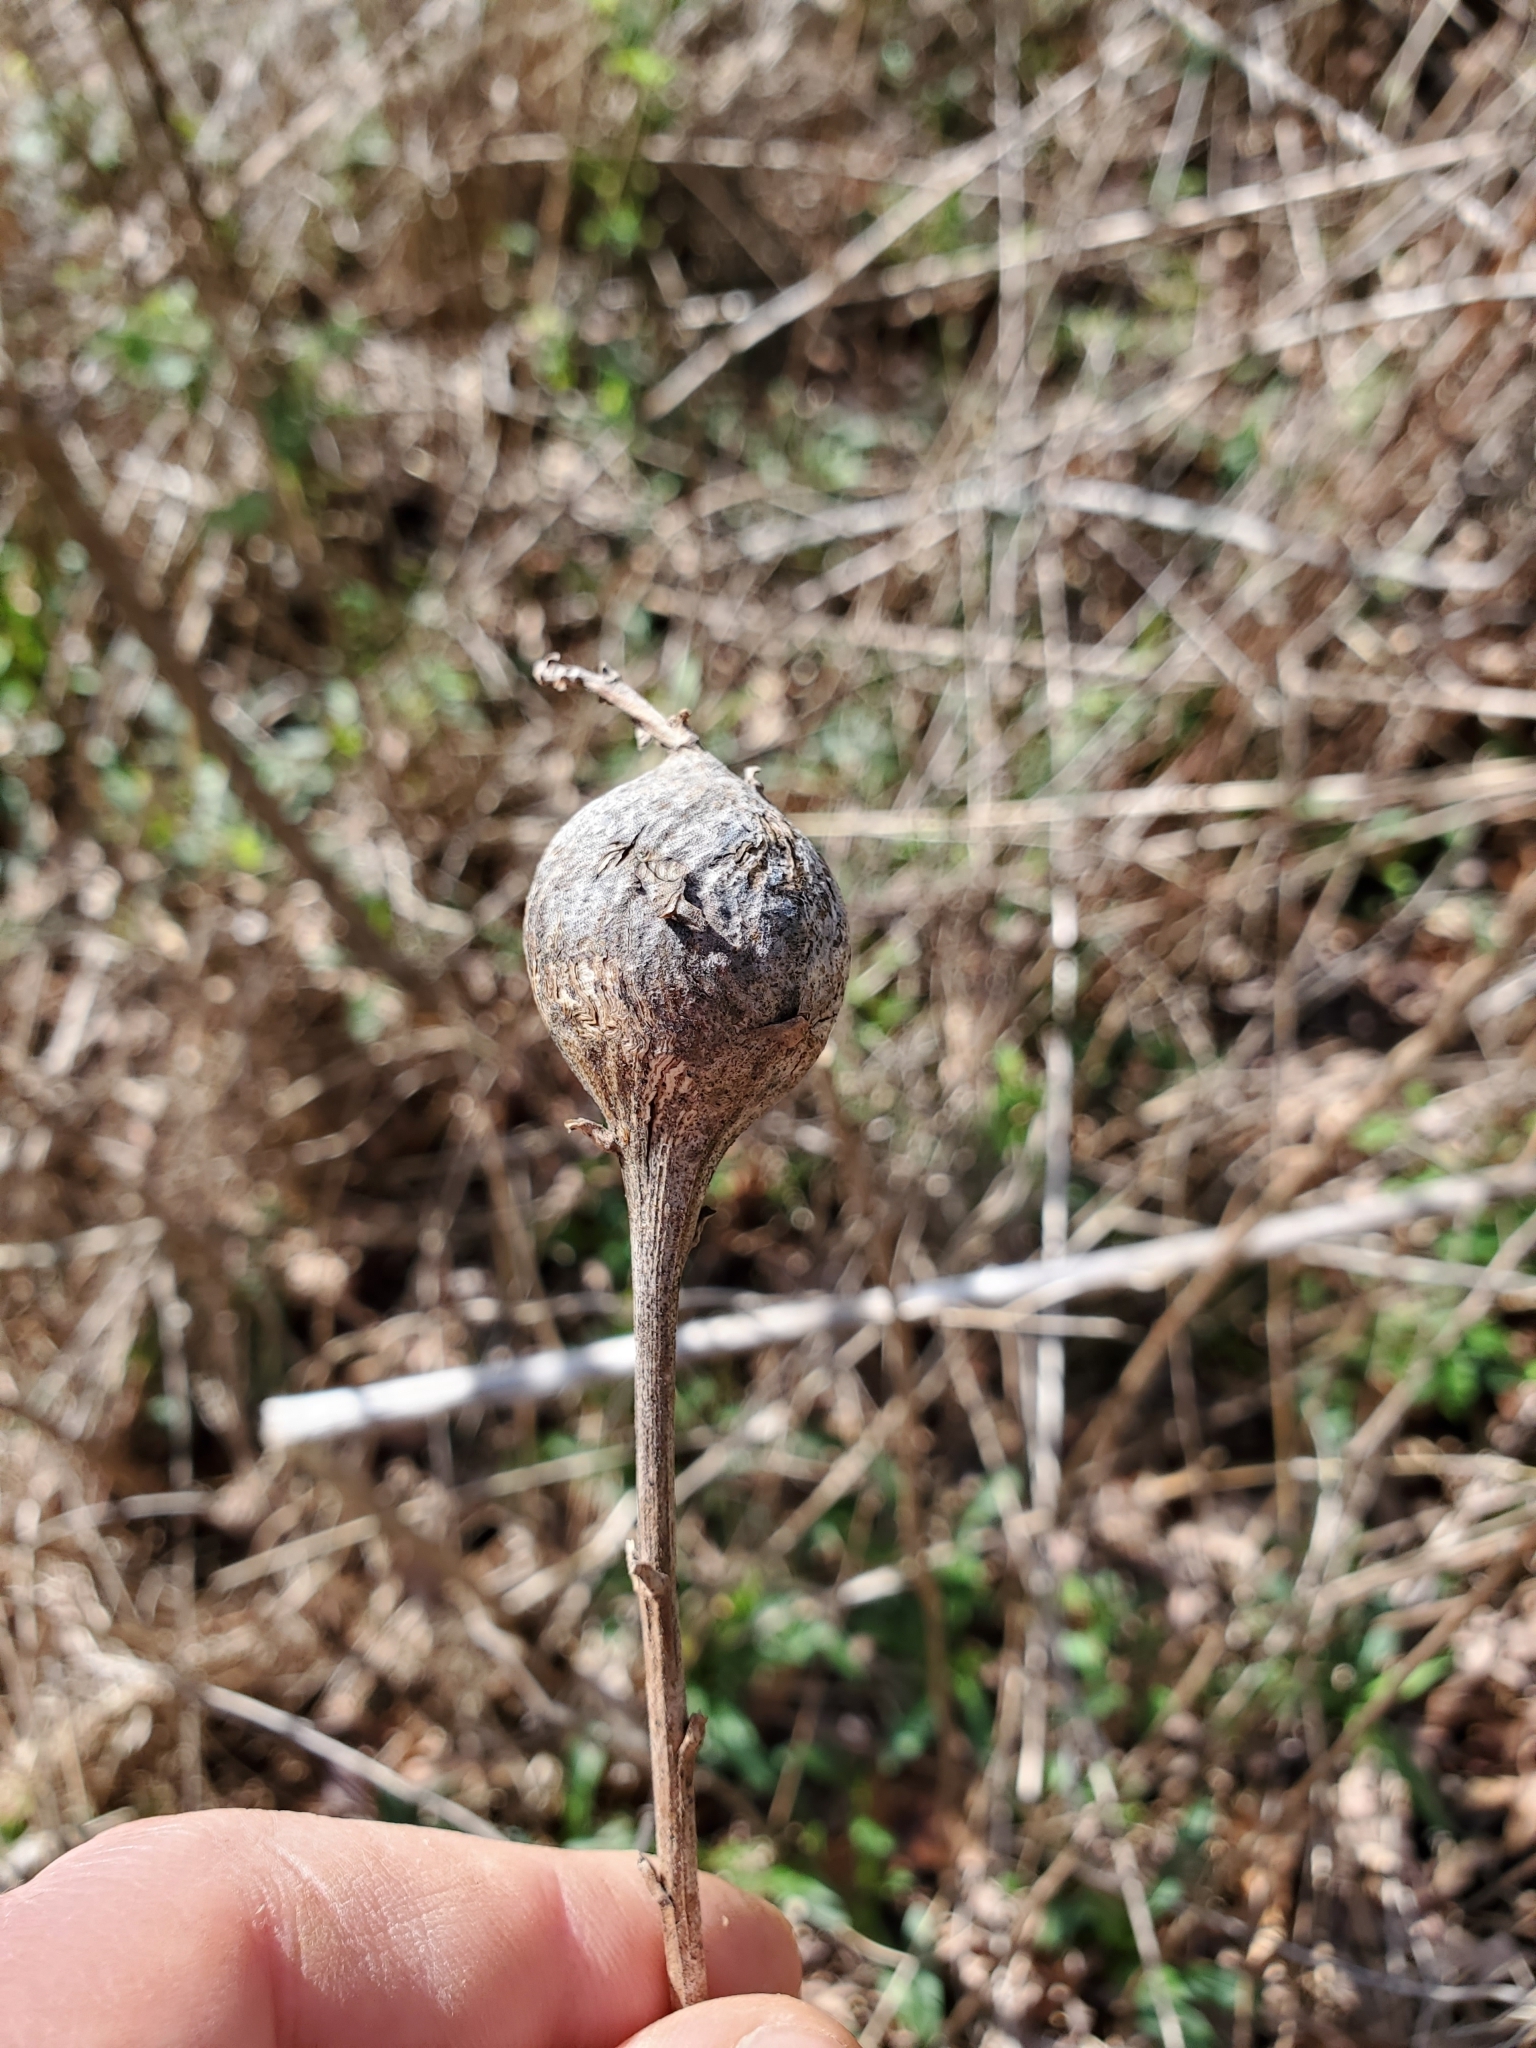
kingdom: Animalia
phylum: Arthropoda
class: Insecta
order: Diptera
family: Tephritidae
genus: Eurosta
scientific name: Eurosta solidaginis
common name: Goldenrod gall fly
